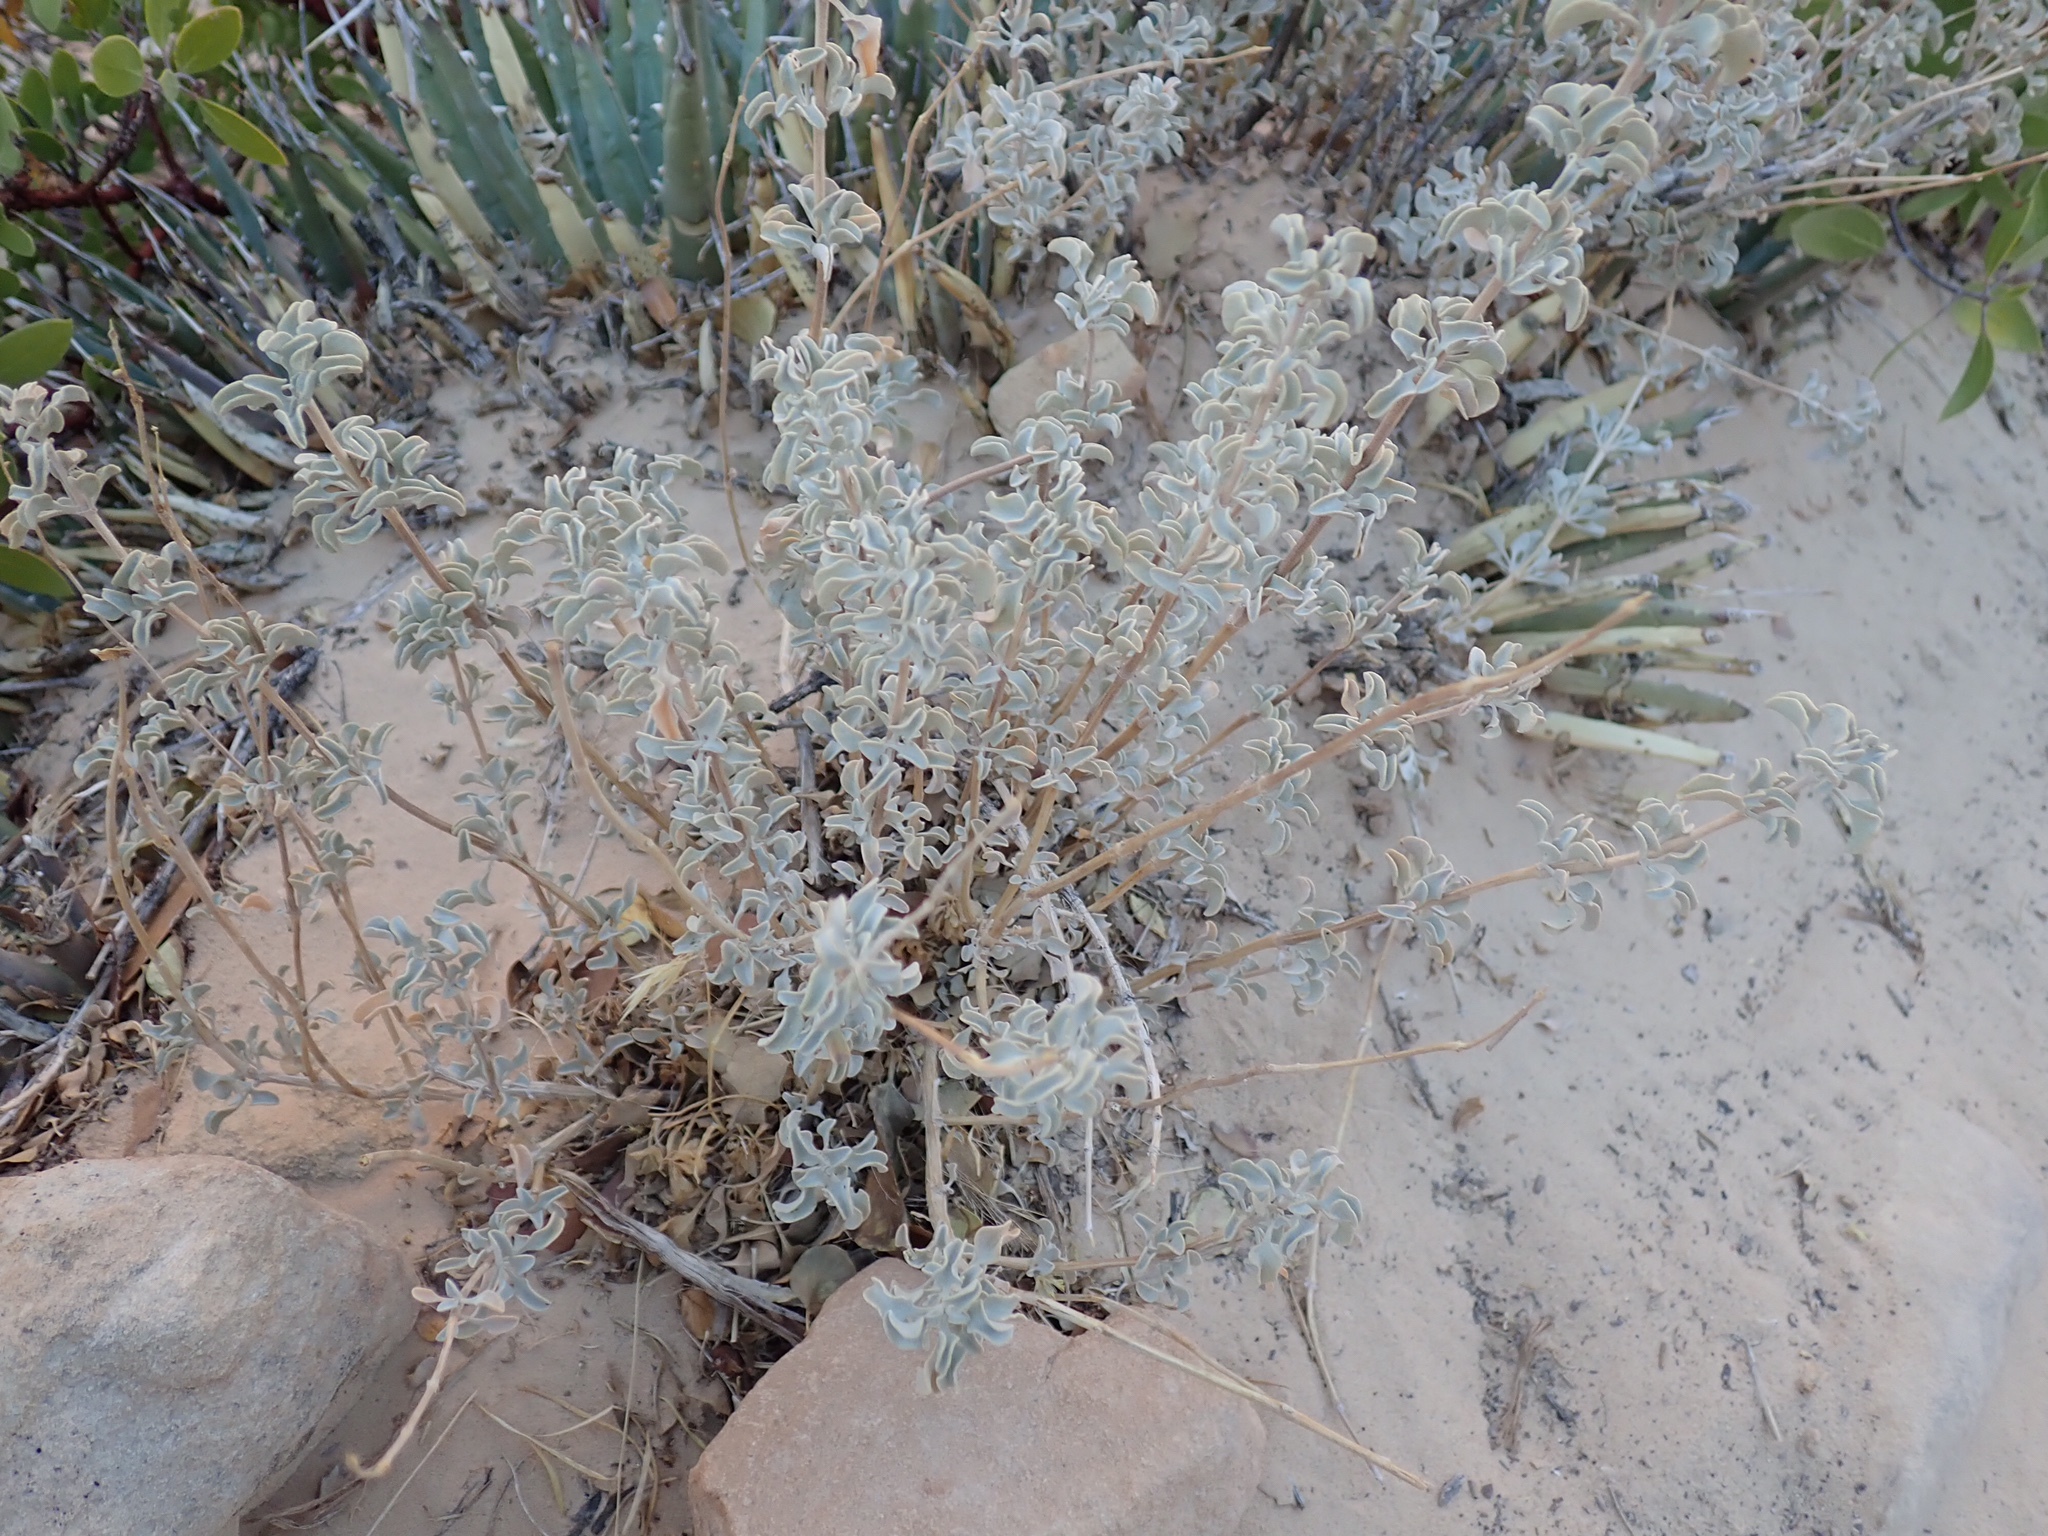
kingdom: Plantae
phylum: Tracheophyta
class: Magnoliopsida
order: Lamiales
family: Lamiaceae
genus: Salvia
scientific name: Salvia dorrii
